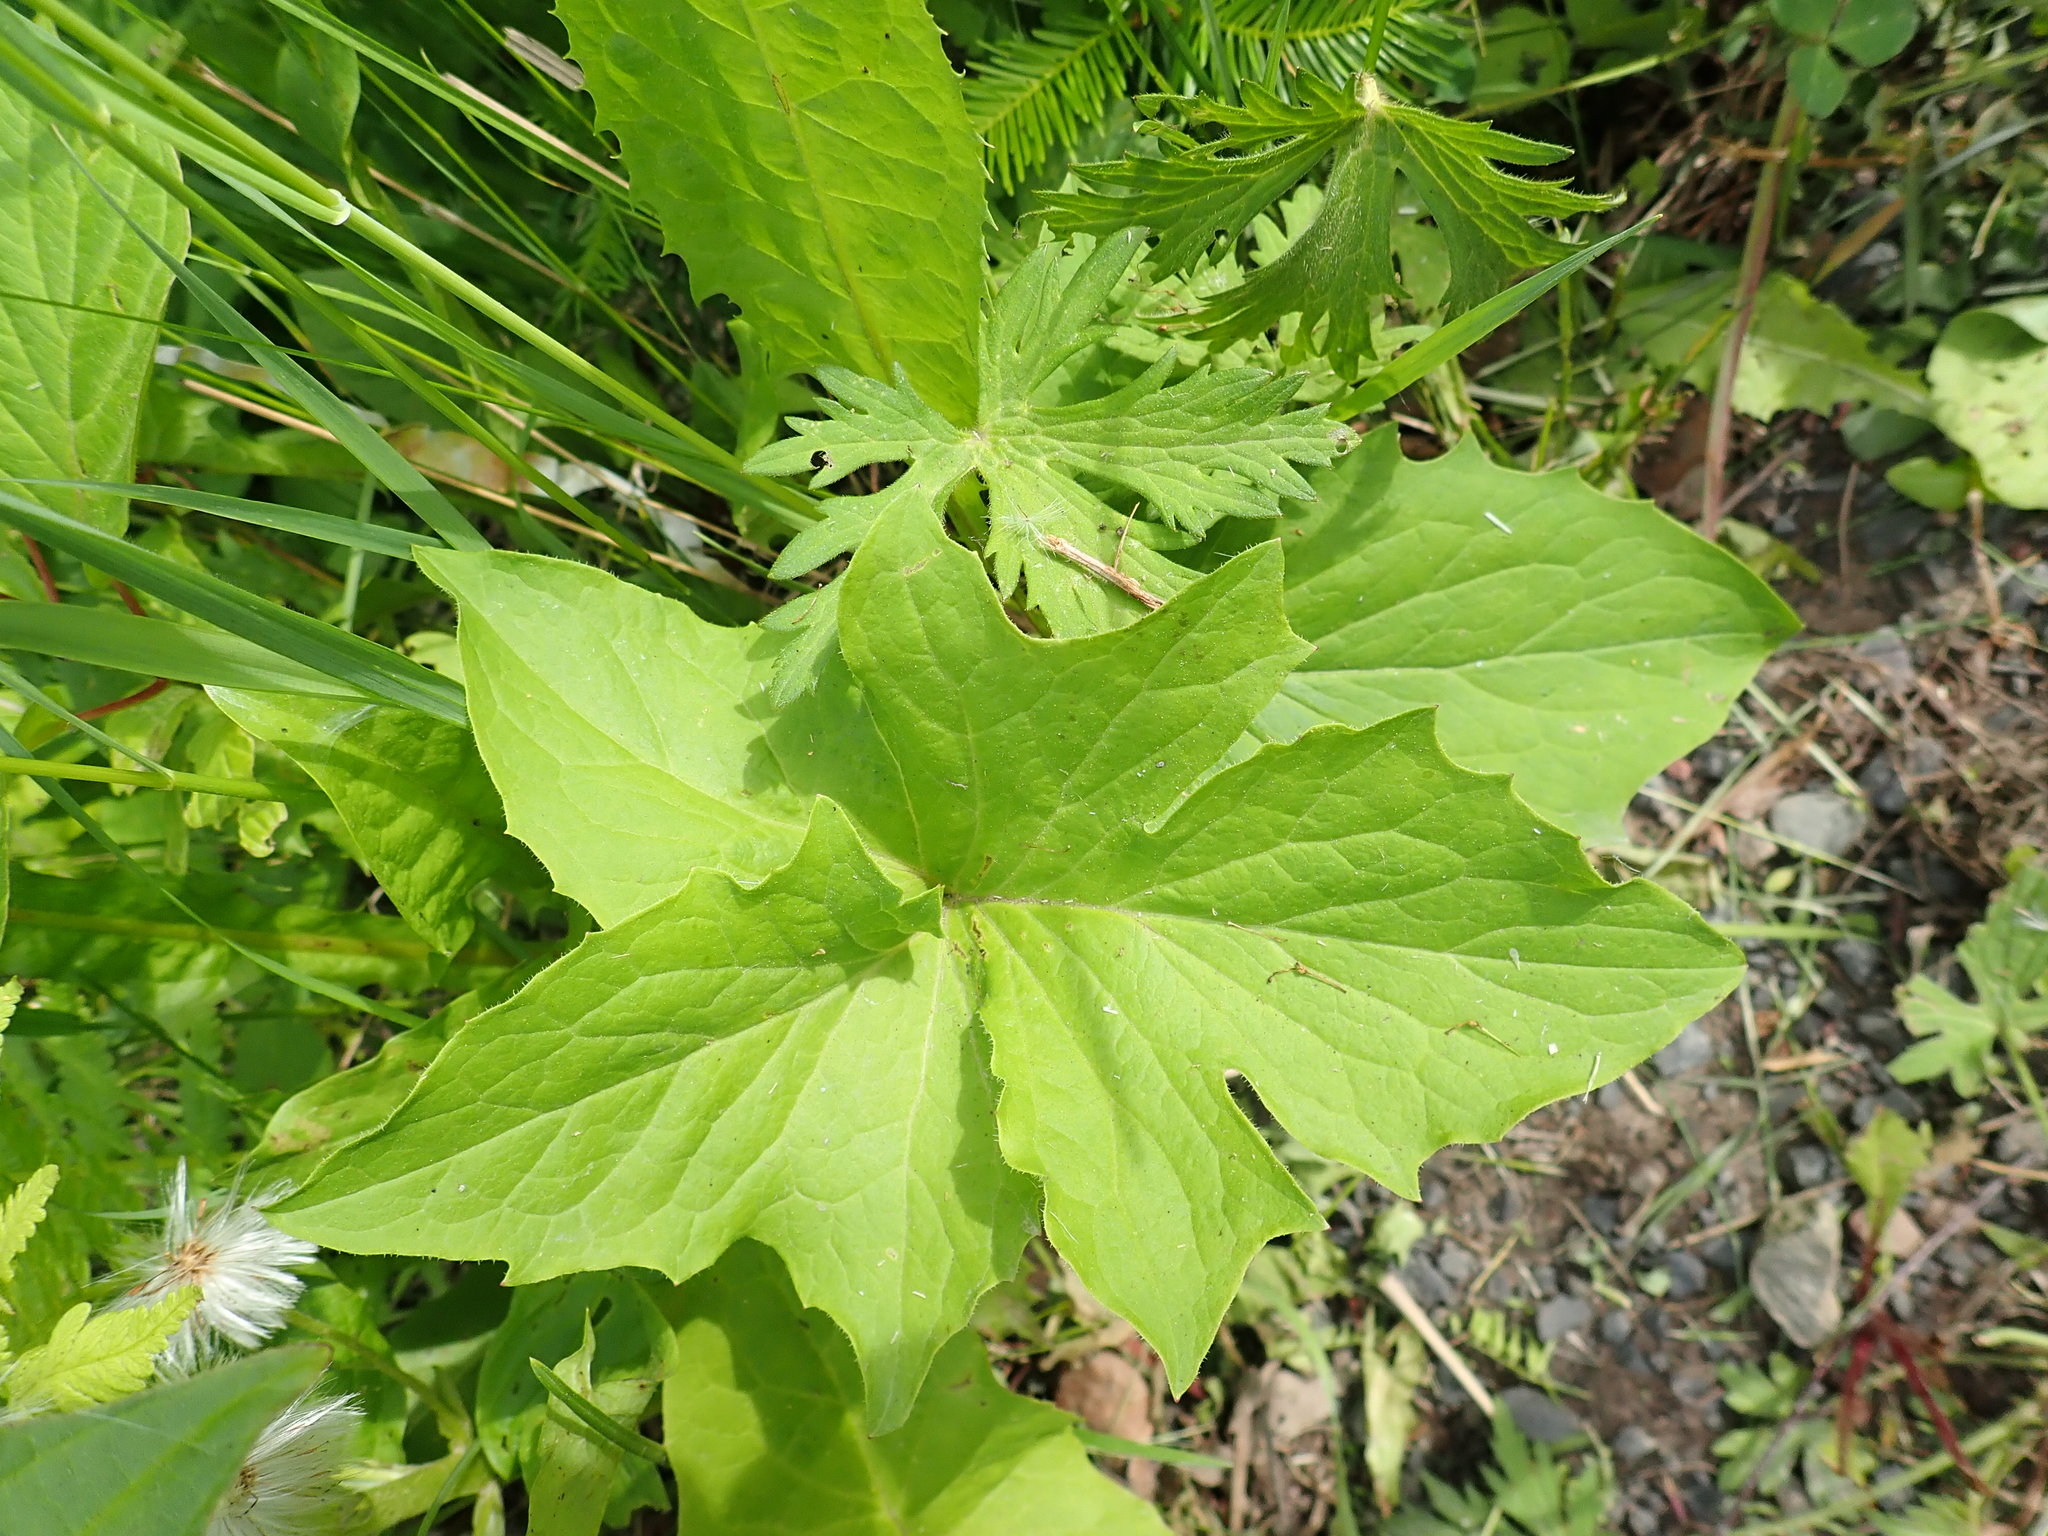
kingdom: Plantae
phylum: Tracheophyta
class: Magnoliopsida
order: Asterales
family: Asteraceae
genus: Nabalus
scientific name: Nabalus albus
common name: White rattlesnakeroot
